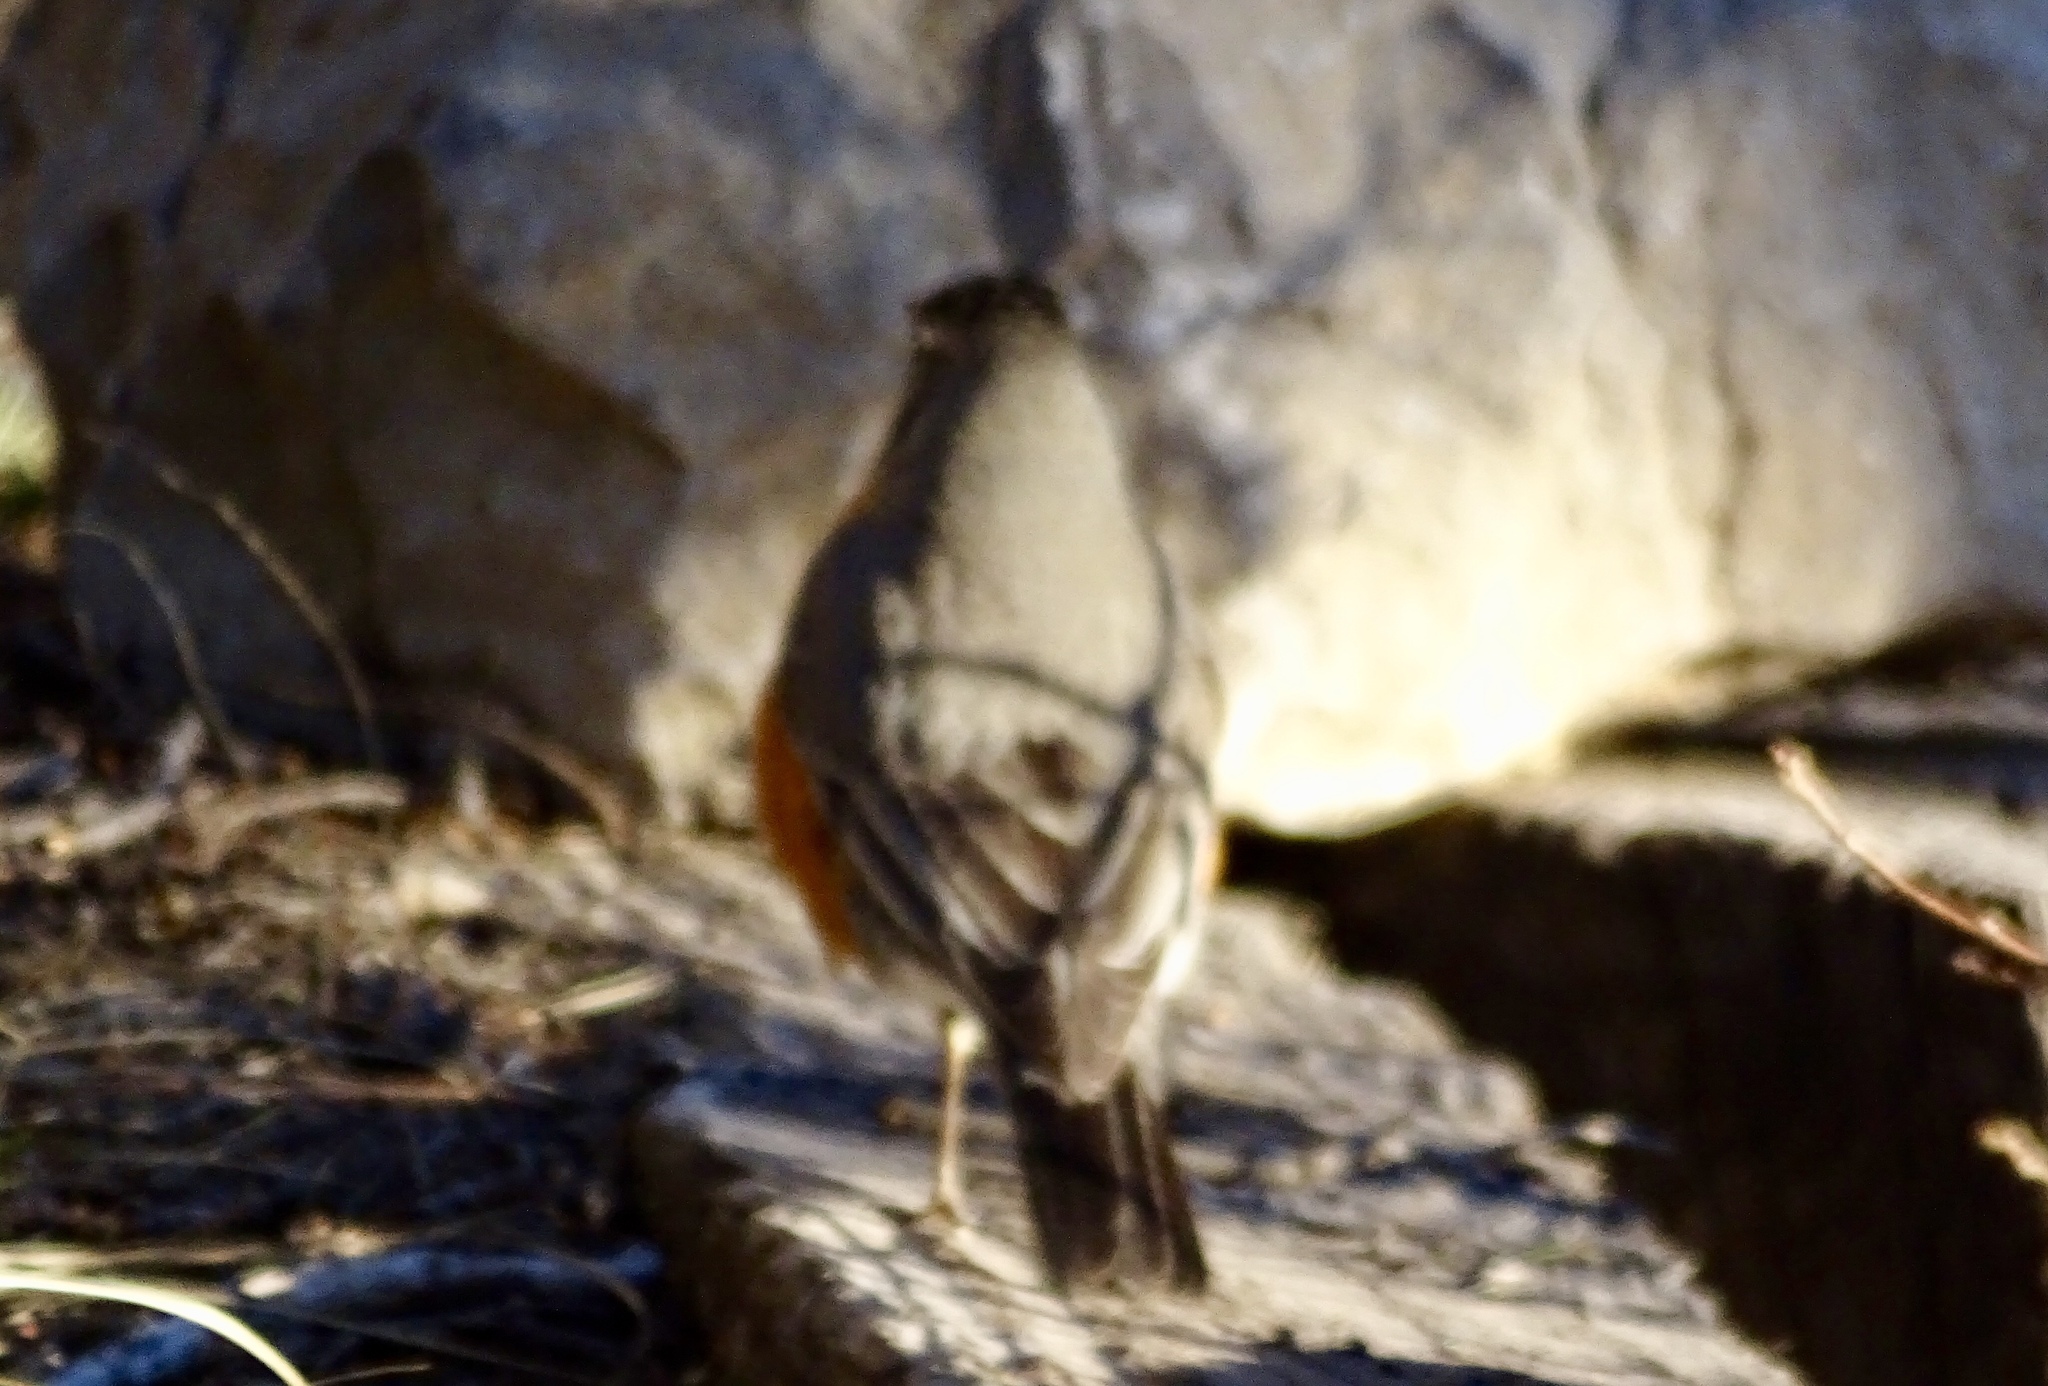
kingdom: Animalia
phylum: Chordata
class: Aves
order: Passeriformes
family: Turdidae
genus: Turdus
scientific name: Turdus migratorius
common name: American robin
